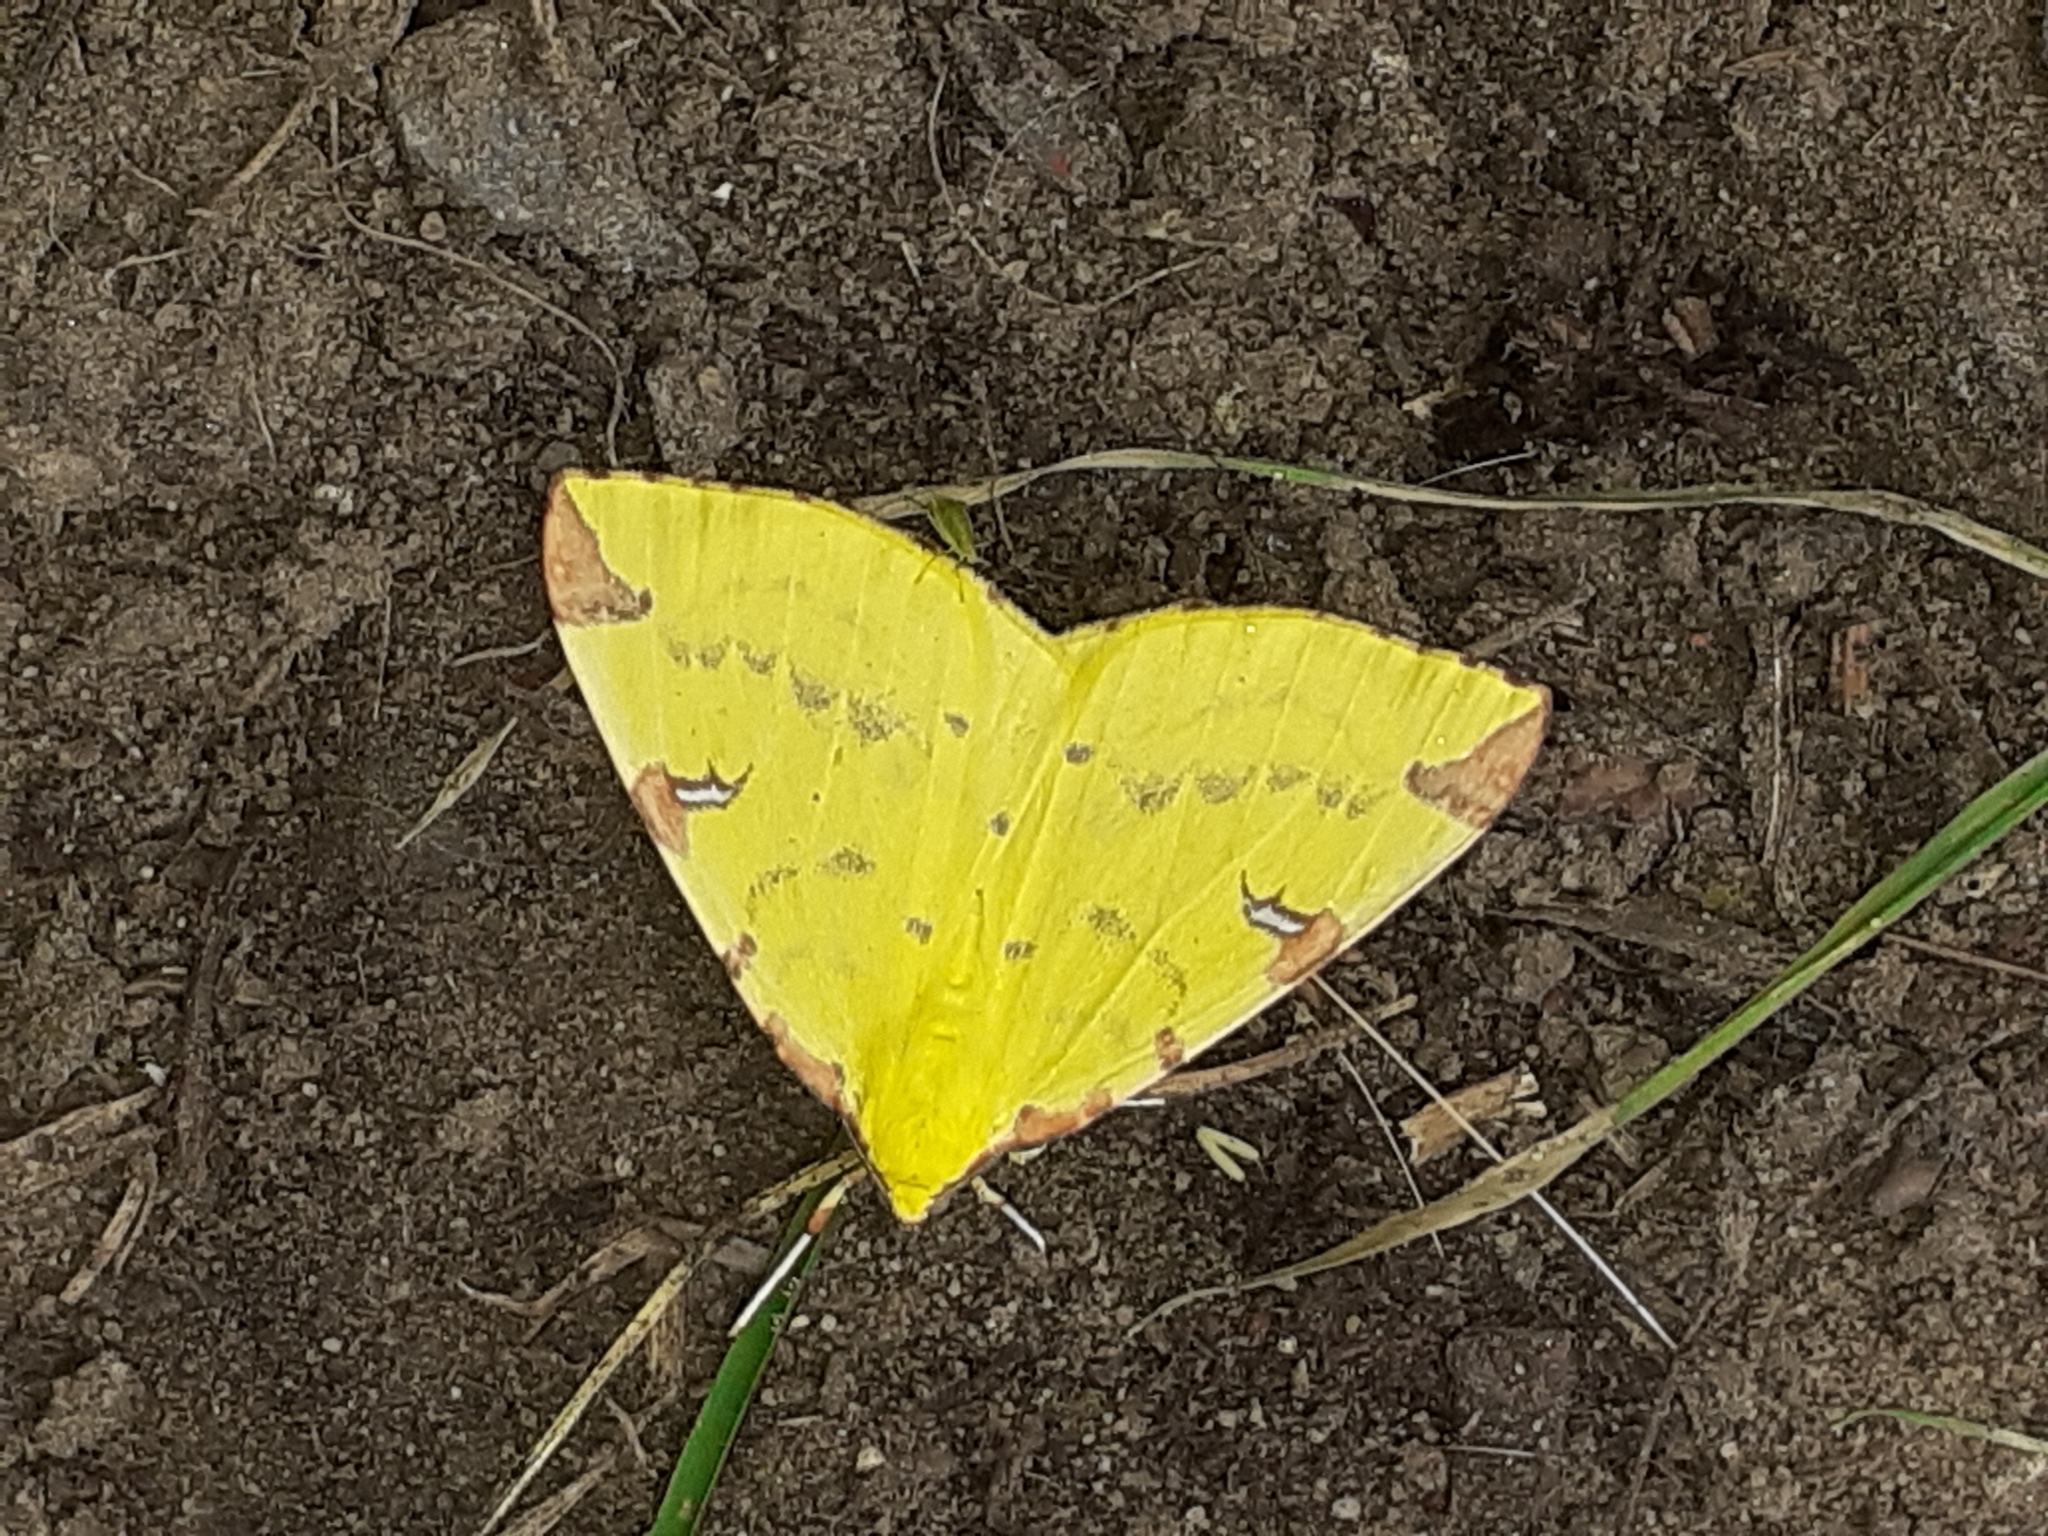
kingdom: Animalia
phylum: Arthropoda
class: Insecta
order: Lepidoptera
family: Geometridae
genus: Opisthograptis
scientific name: Opisthograptis luteolata
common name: Brimstone moth
